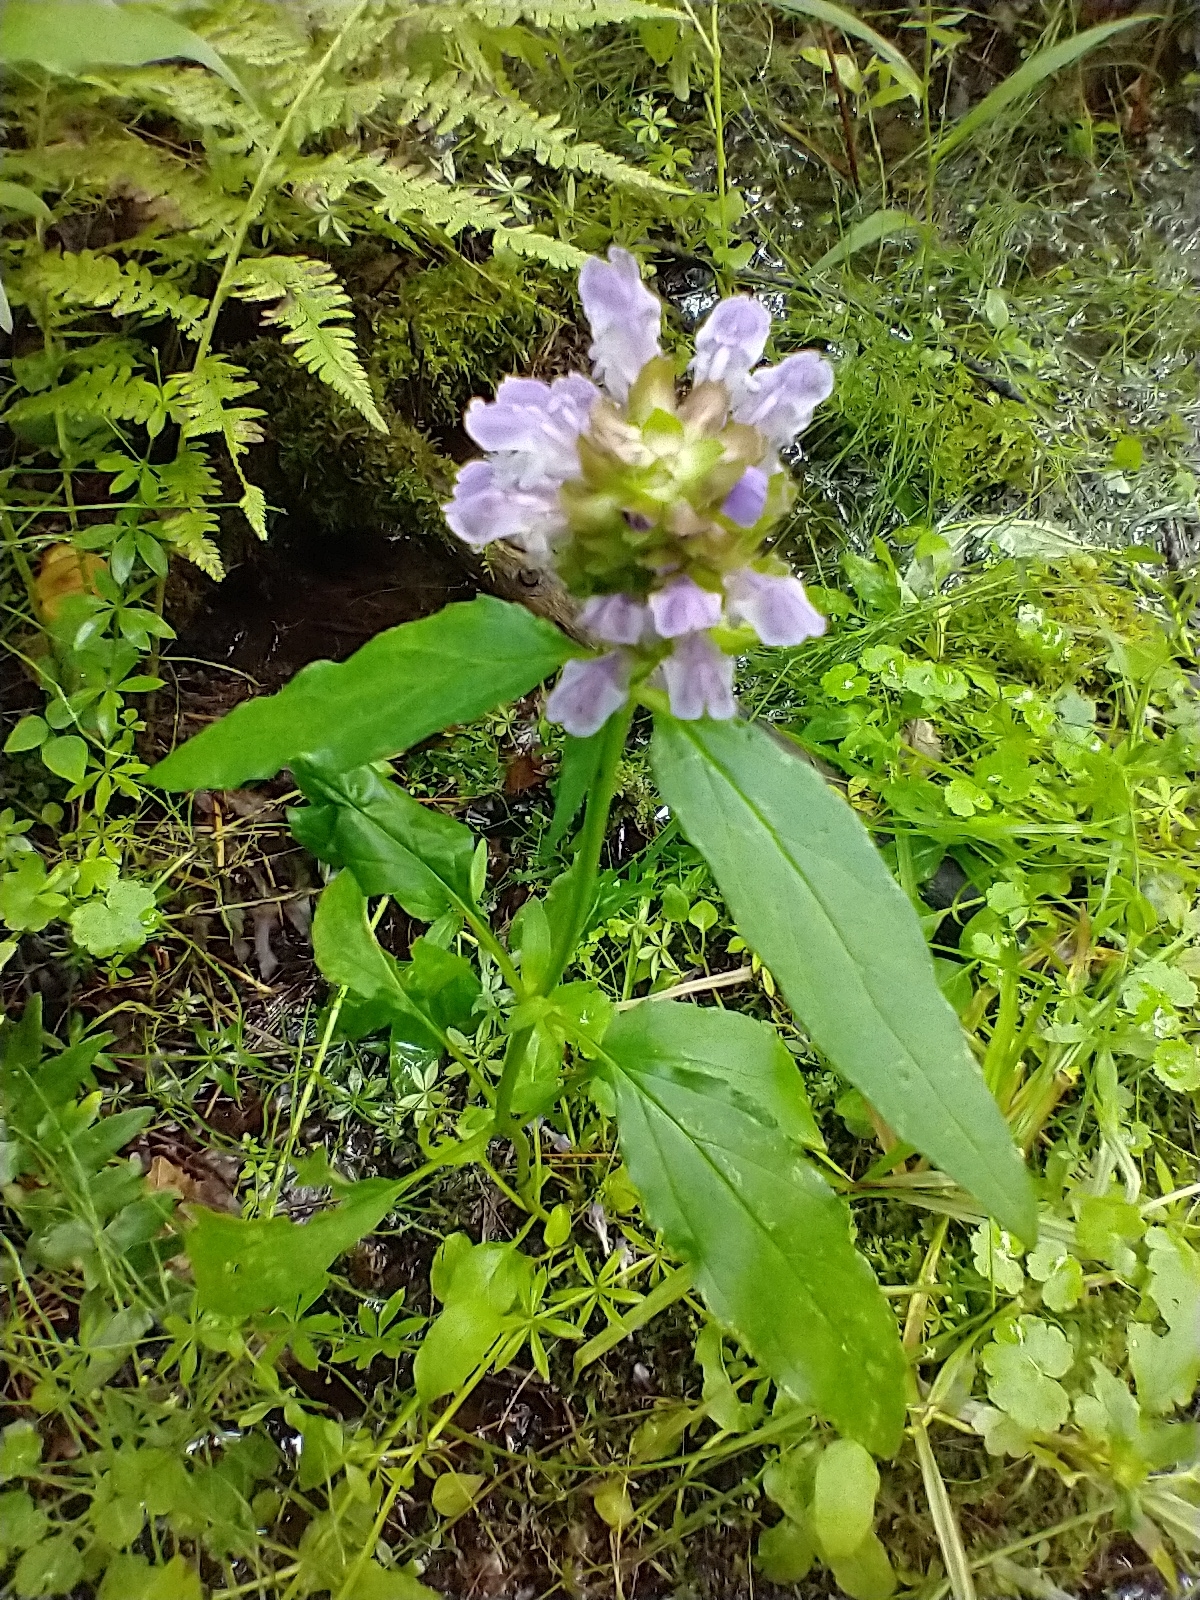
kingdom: Plantae
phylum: Tracheophyta
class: Magnoliopsida
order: Lamiales
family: Lamiaceae
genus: Prunella
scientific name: Prunella vulgaris
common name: Heal-all
